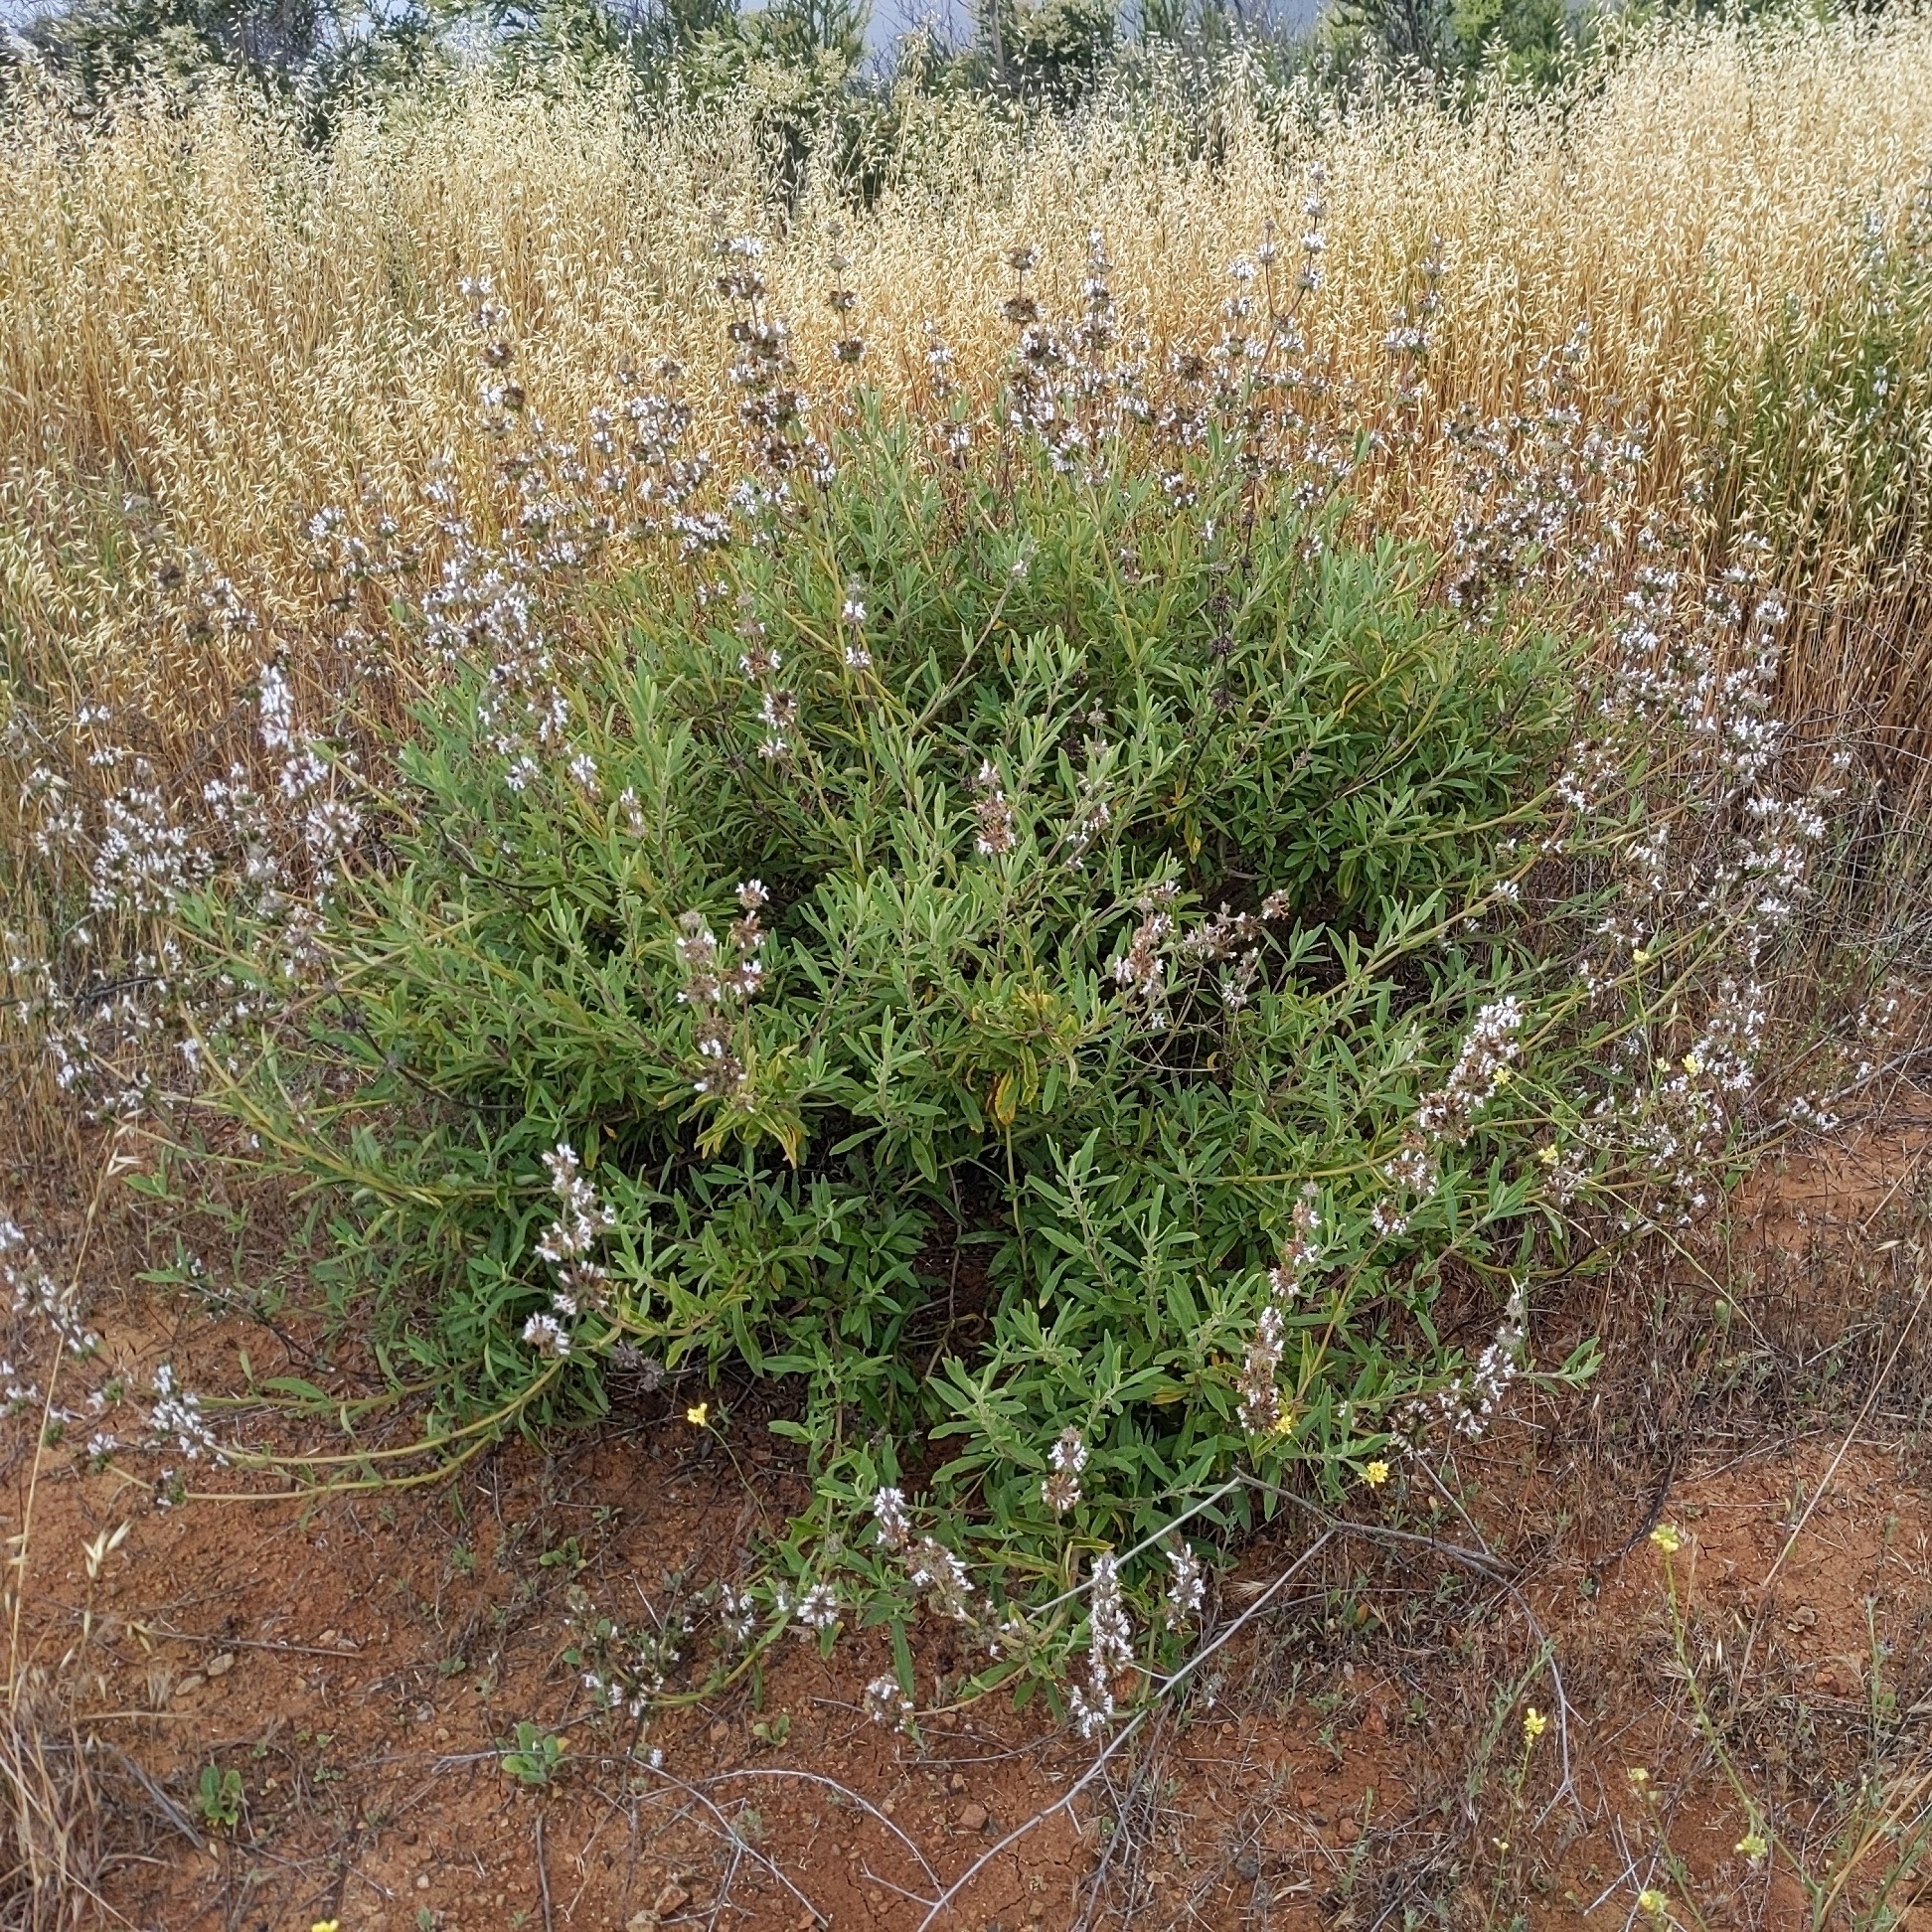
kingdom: Plantae
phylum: Tracheophyta
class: Magnoliopsida
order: Lamiales
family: Lamiaceae
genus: Salvia
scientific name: Salvia mellifera
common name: Black sage
